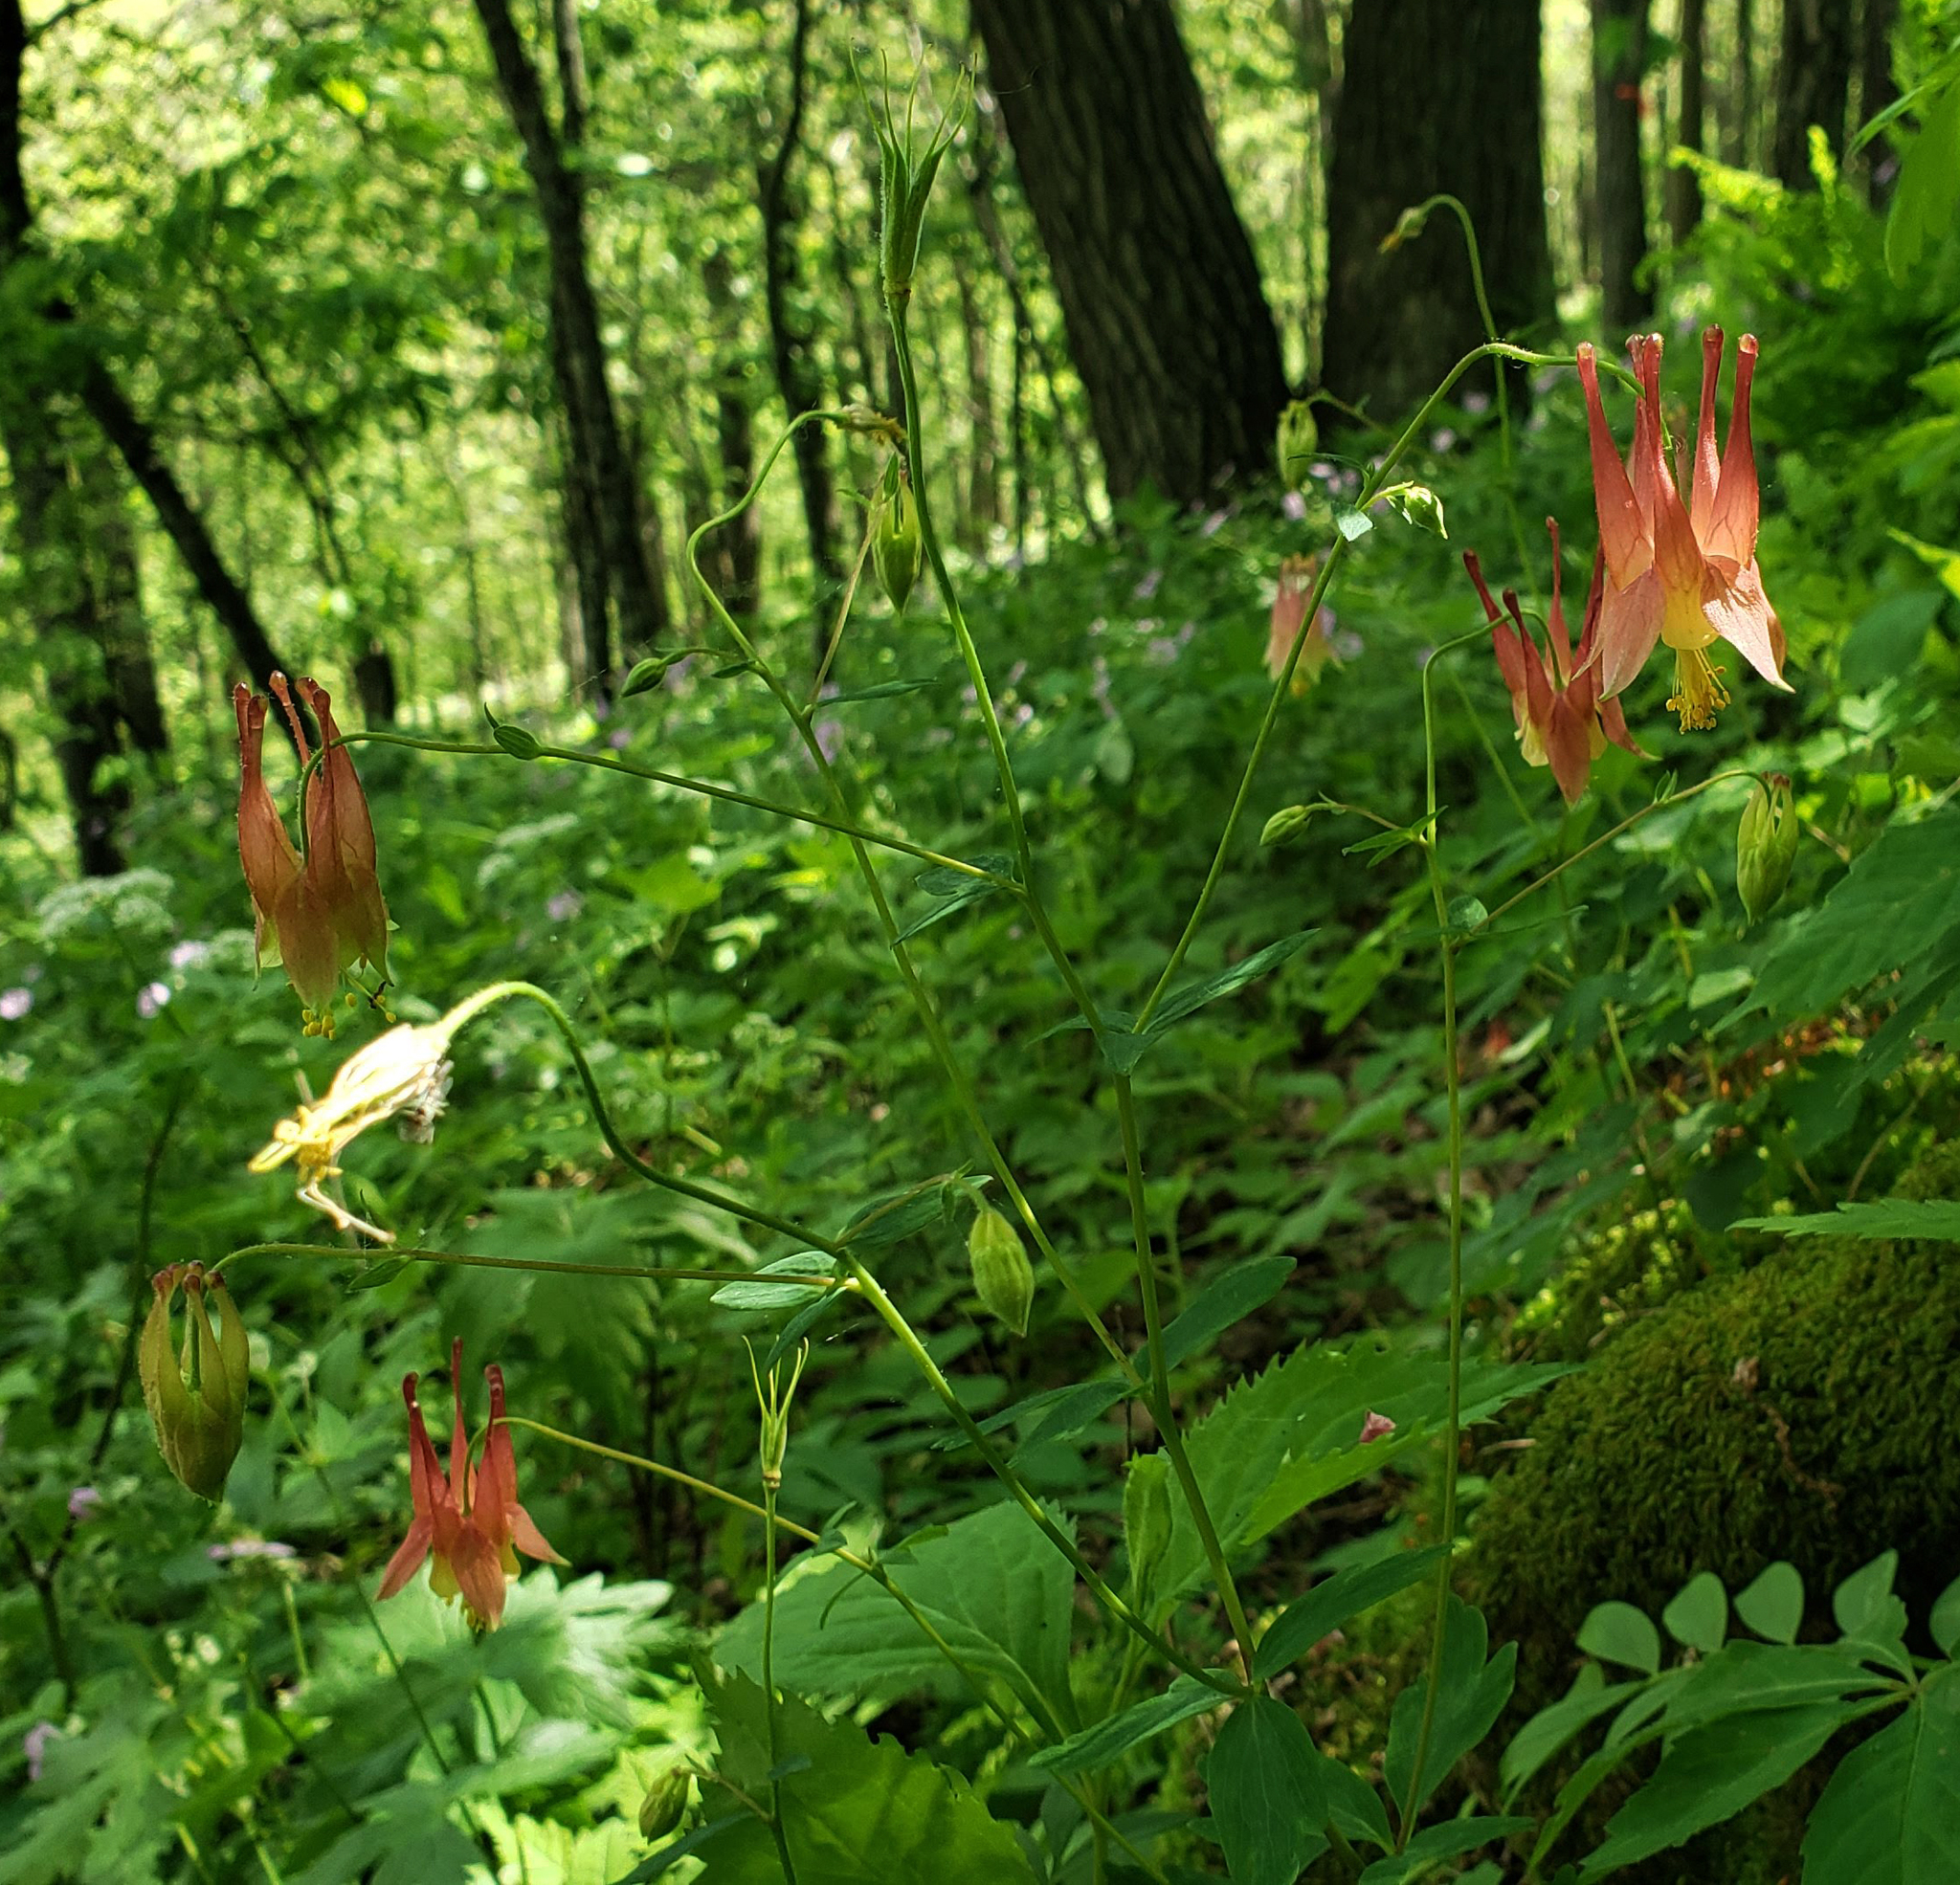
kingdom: Plantae
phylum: Tracheophyta
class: Magnoliopsida
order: Ranunculales
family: Ranunculaceae
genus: Aquilegia
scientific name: Aquilegia canadensis
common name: American columbine
